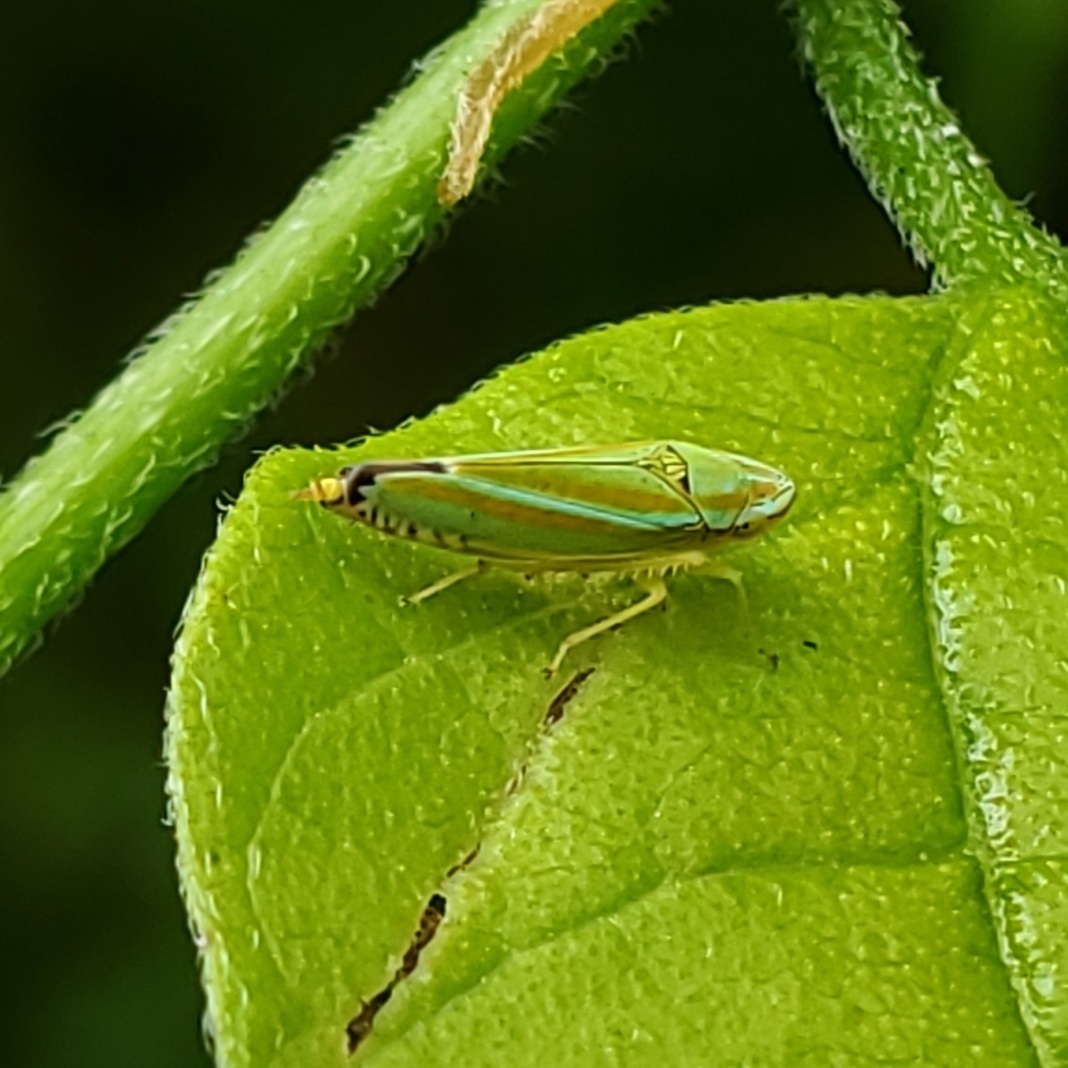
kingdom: Animalia
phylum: Arthropoda
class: Insecta
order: Hemiptera
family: Cicadellidae
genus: Graphocephala
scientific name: Graphocephala versuta
